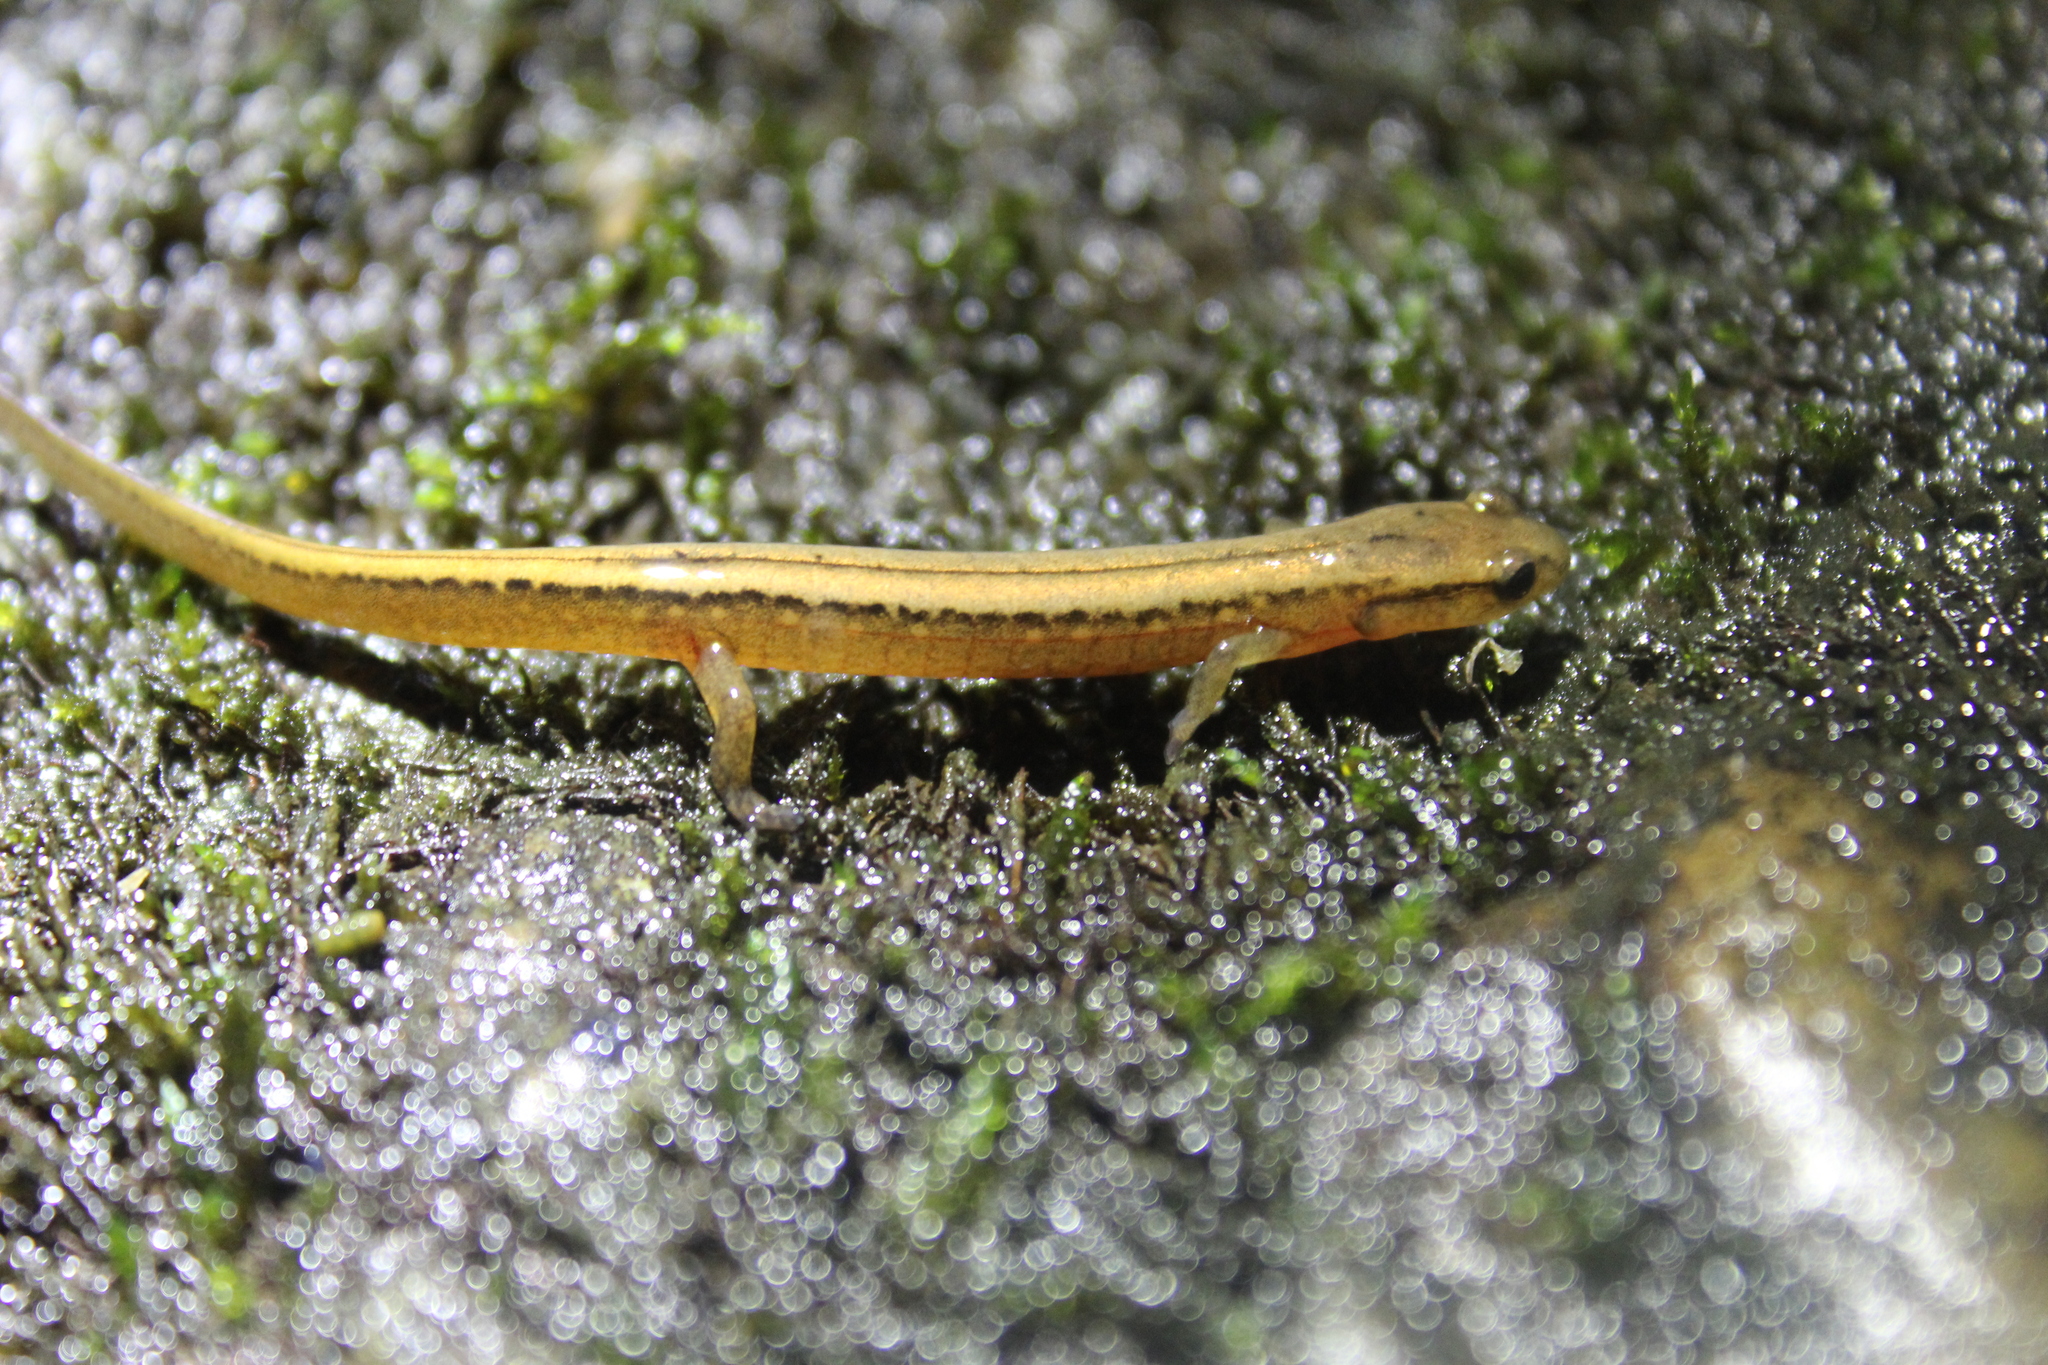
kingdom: Animalia
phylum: Chordata
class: Amphibia
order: Caudata
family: Plethodontidae
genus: Eurycea
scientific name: Eurycea bislineata
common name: Northern two-lined salamander
